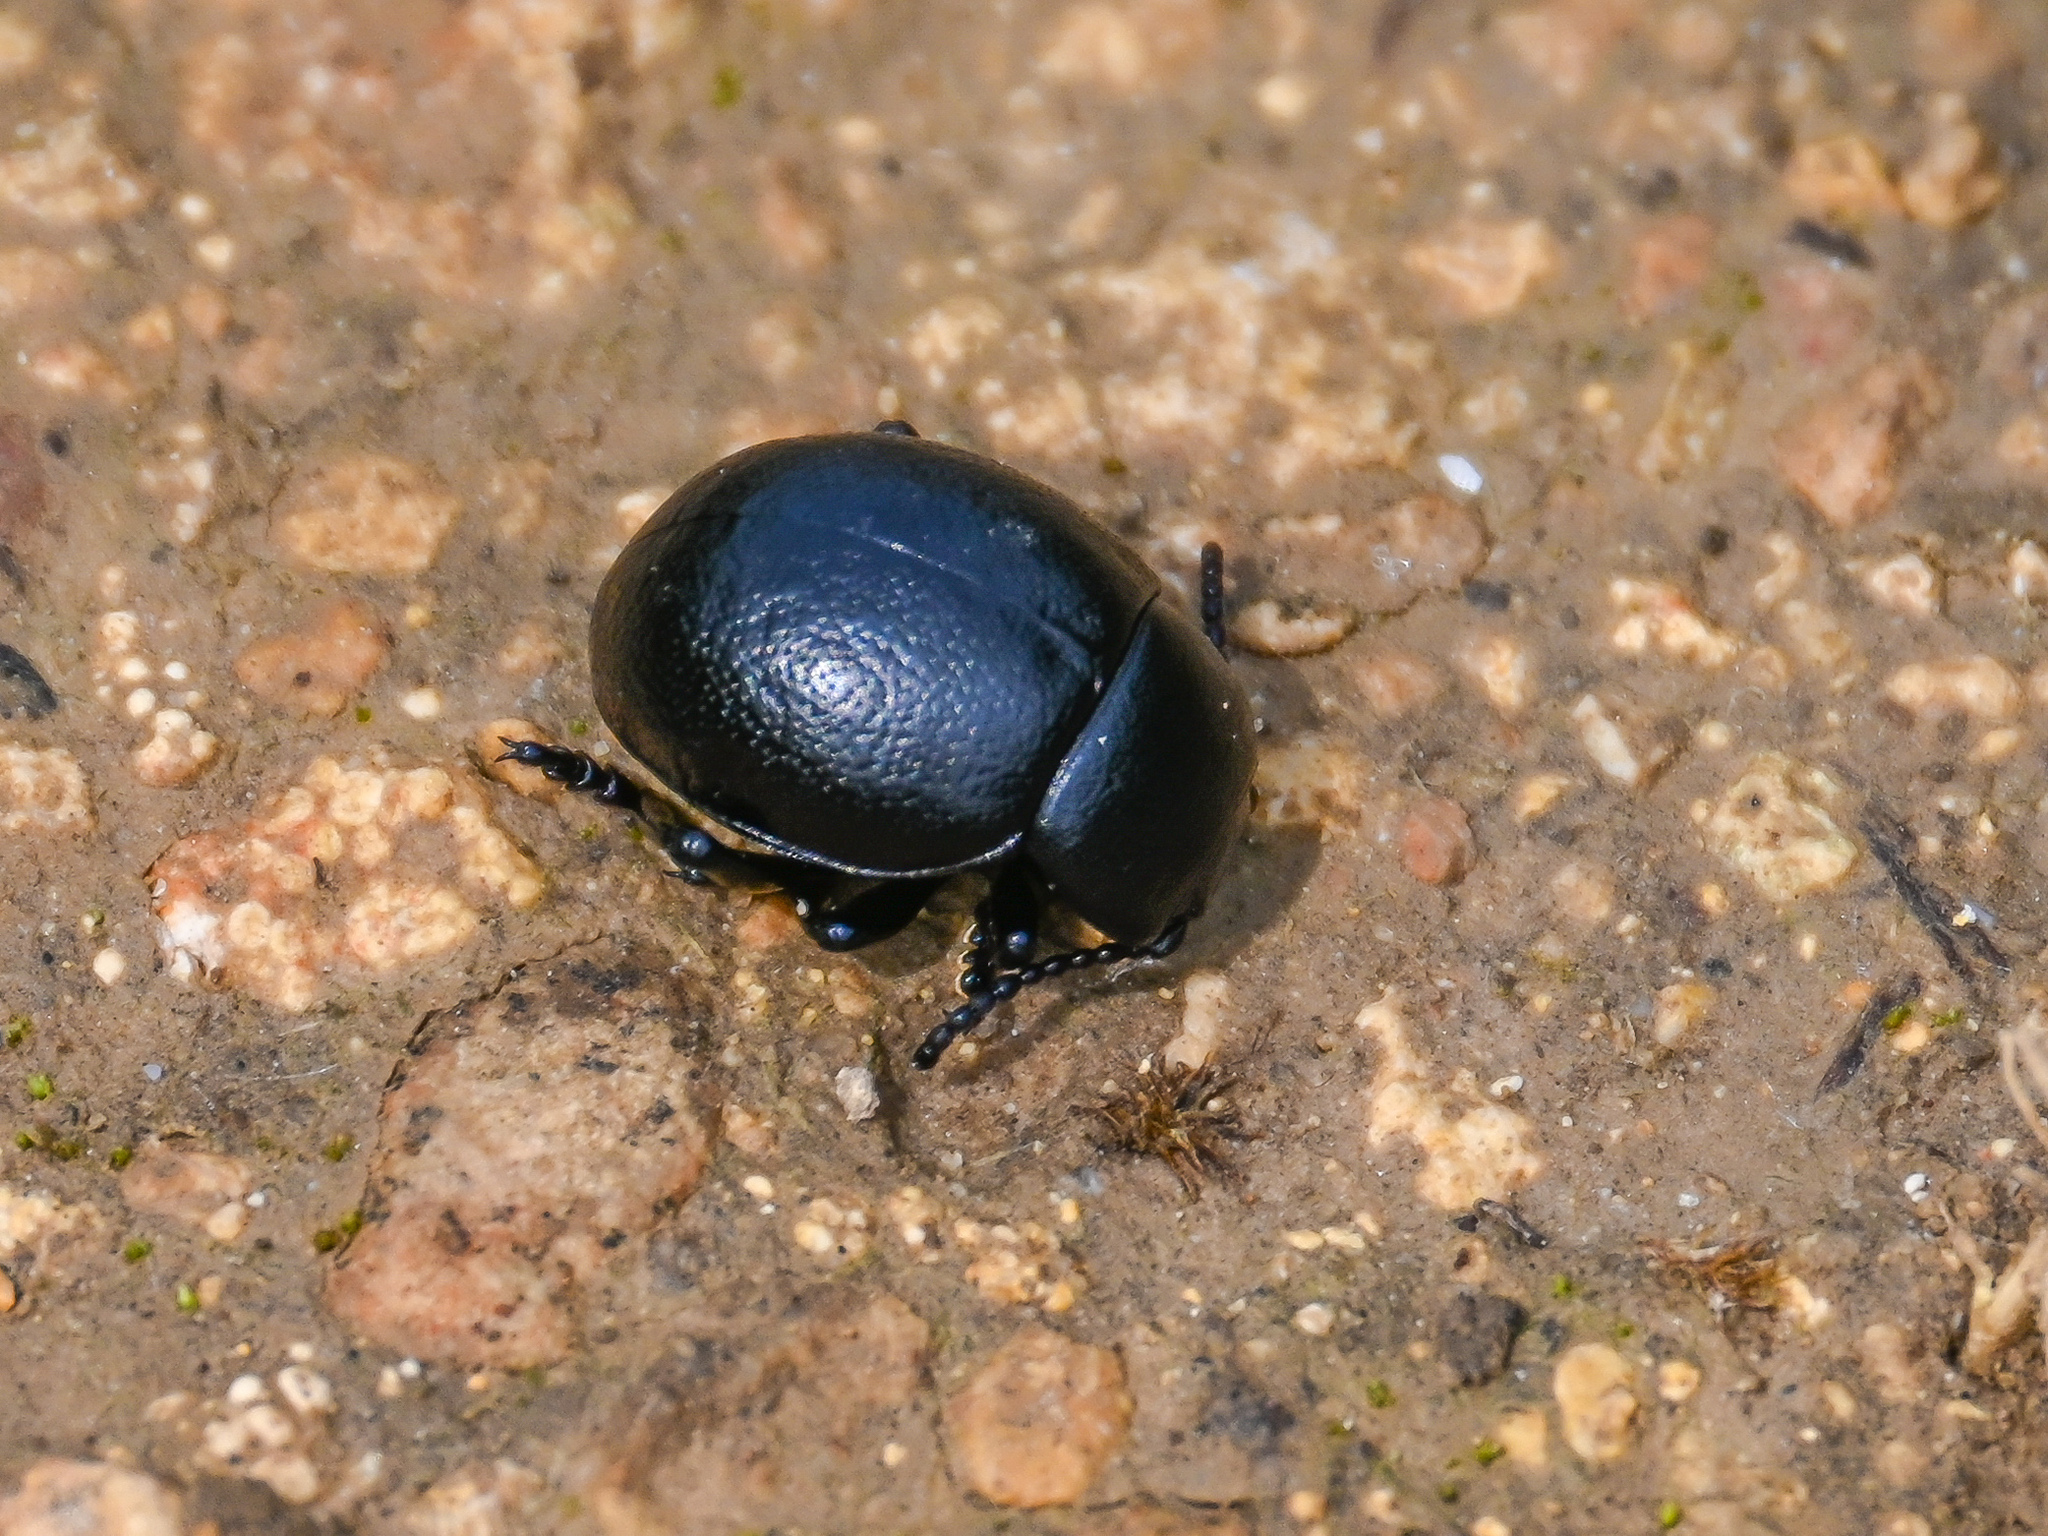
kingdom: Animalia
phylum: Arthropoda
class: Insecta
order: Coleoptera
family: Chrysomelidae
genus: Timarcha
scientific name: Timarcha goettingensis
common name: Small bloody-nosed beetle
